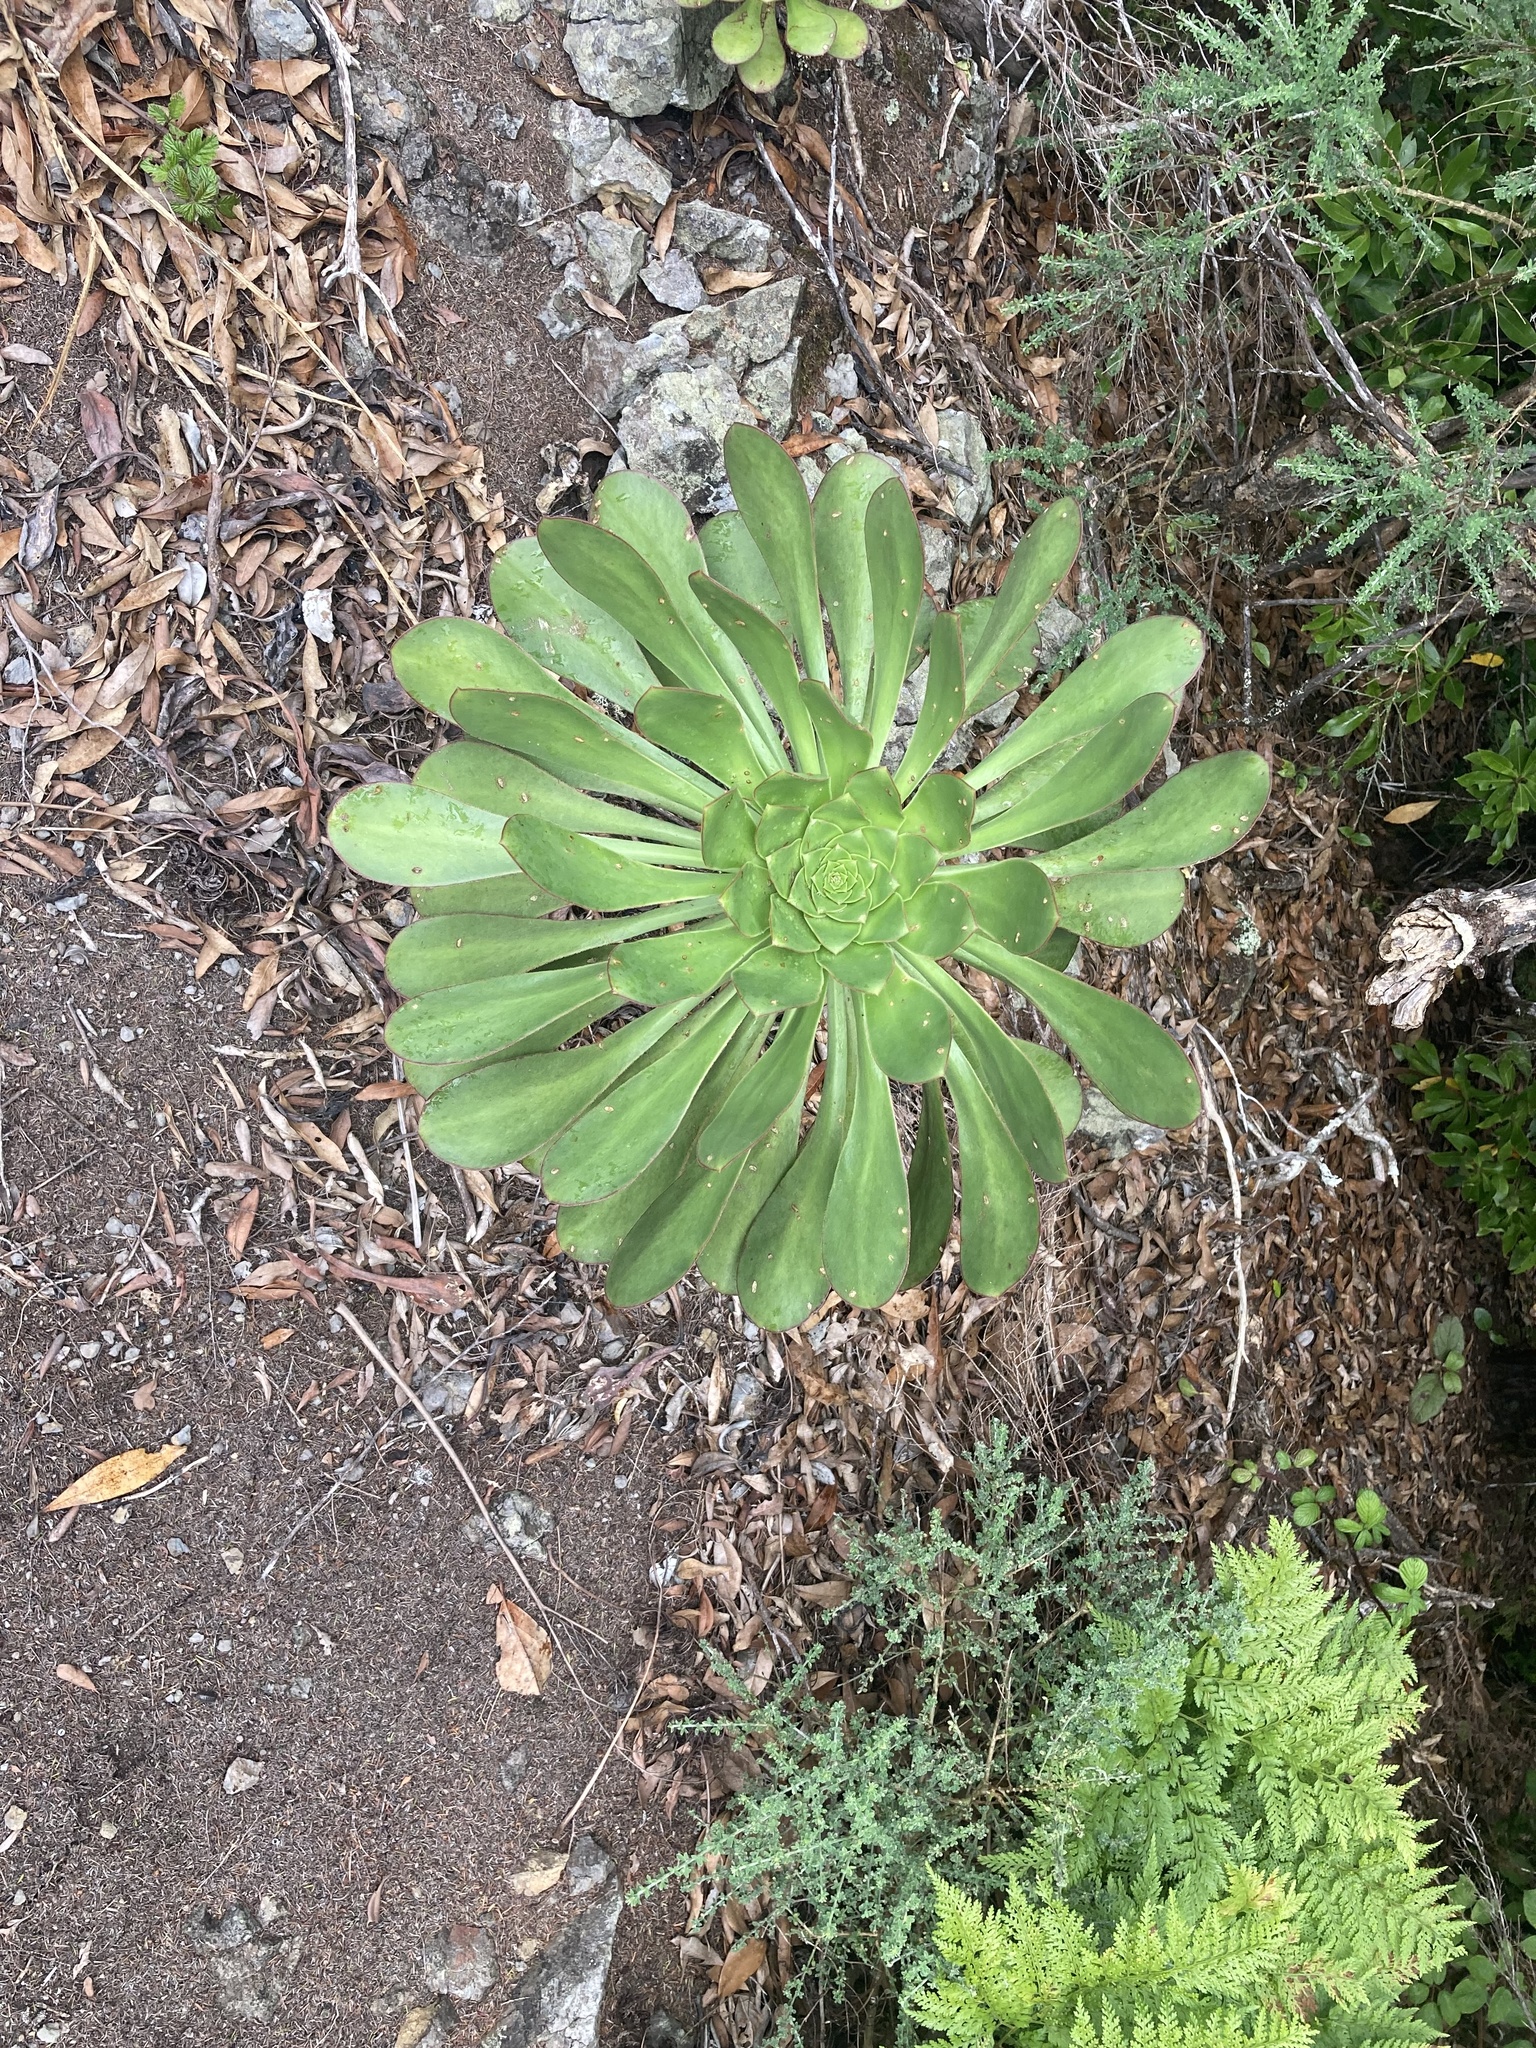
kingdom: Plantae
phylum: Tracheophyta
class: Magnoliopsida
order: Saxifragales
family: Crassulaceae
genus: Aeonium
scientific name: Aeonium ciliatum
